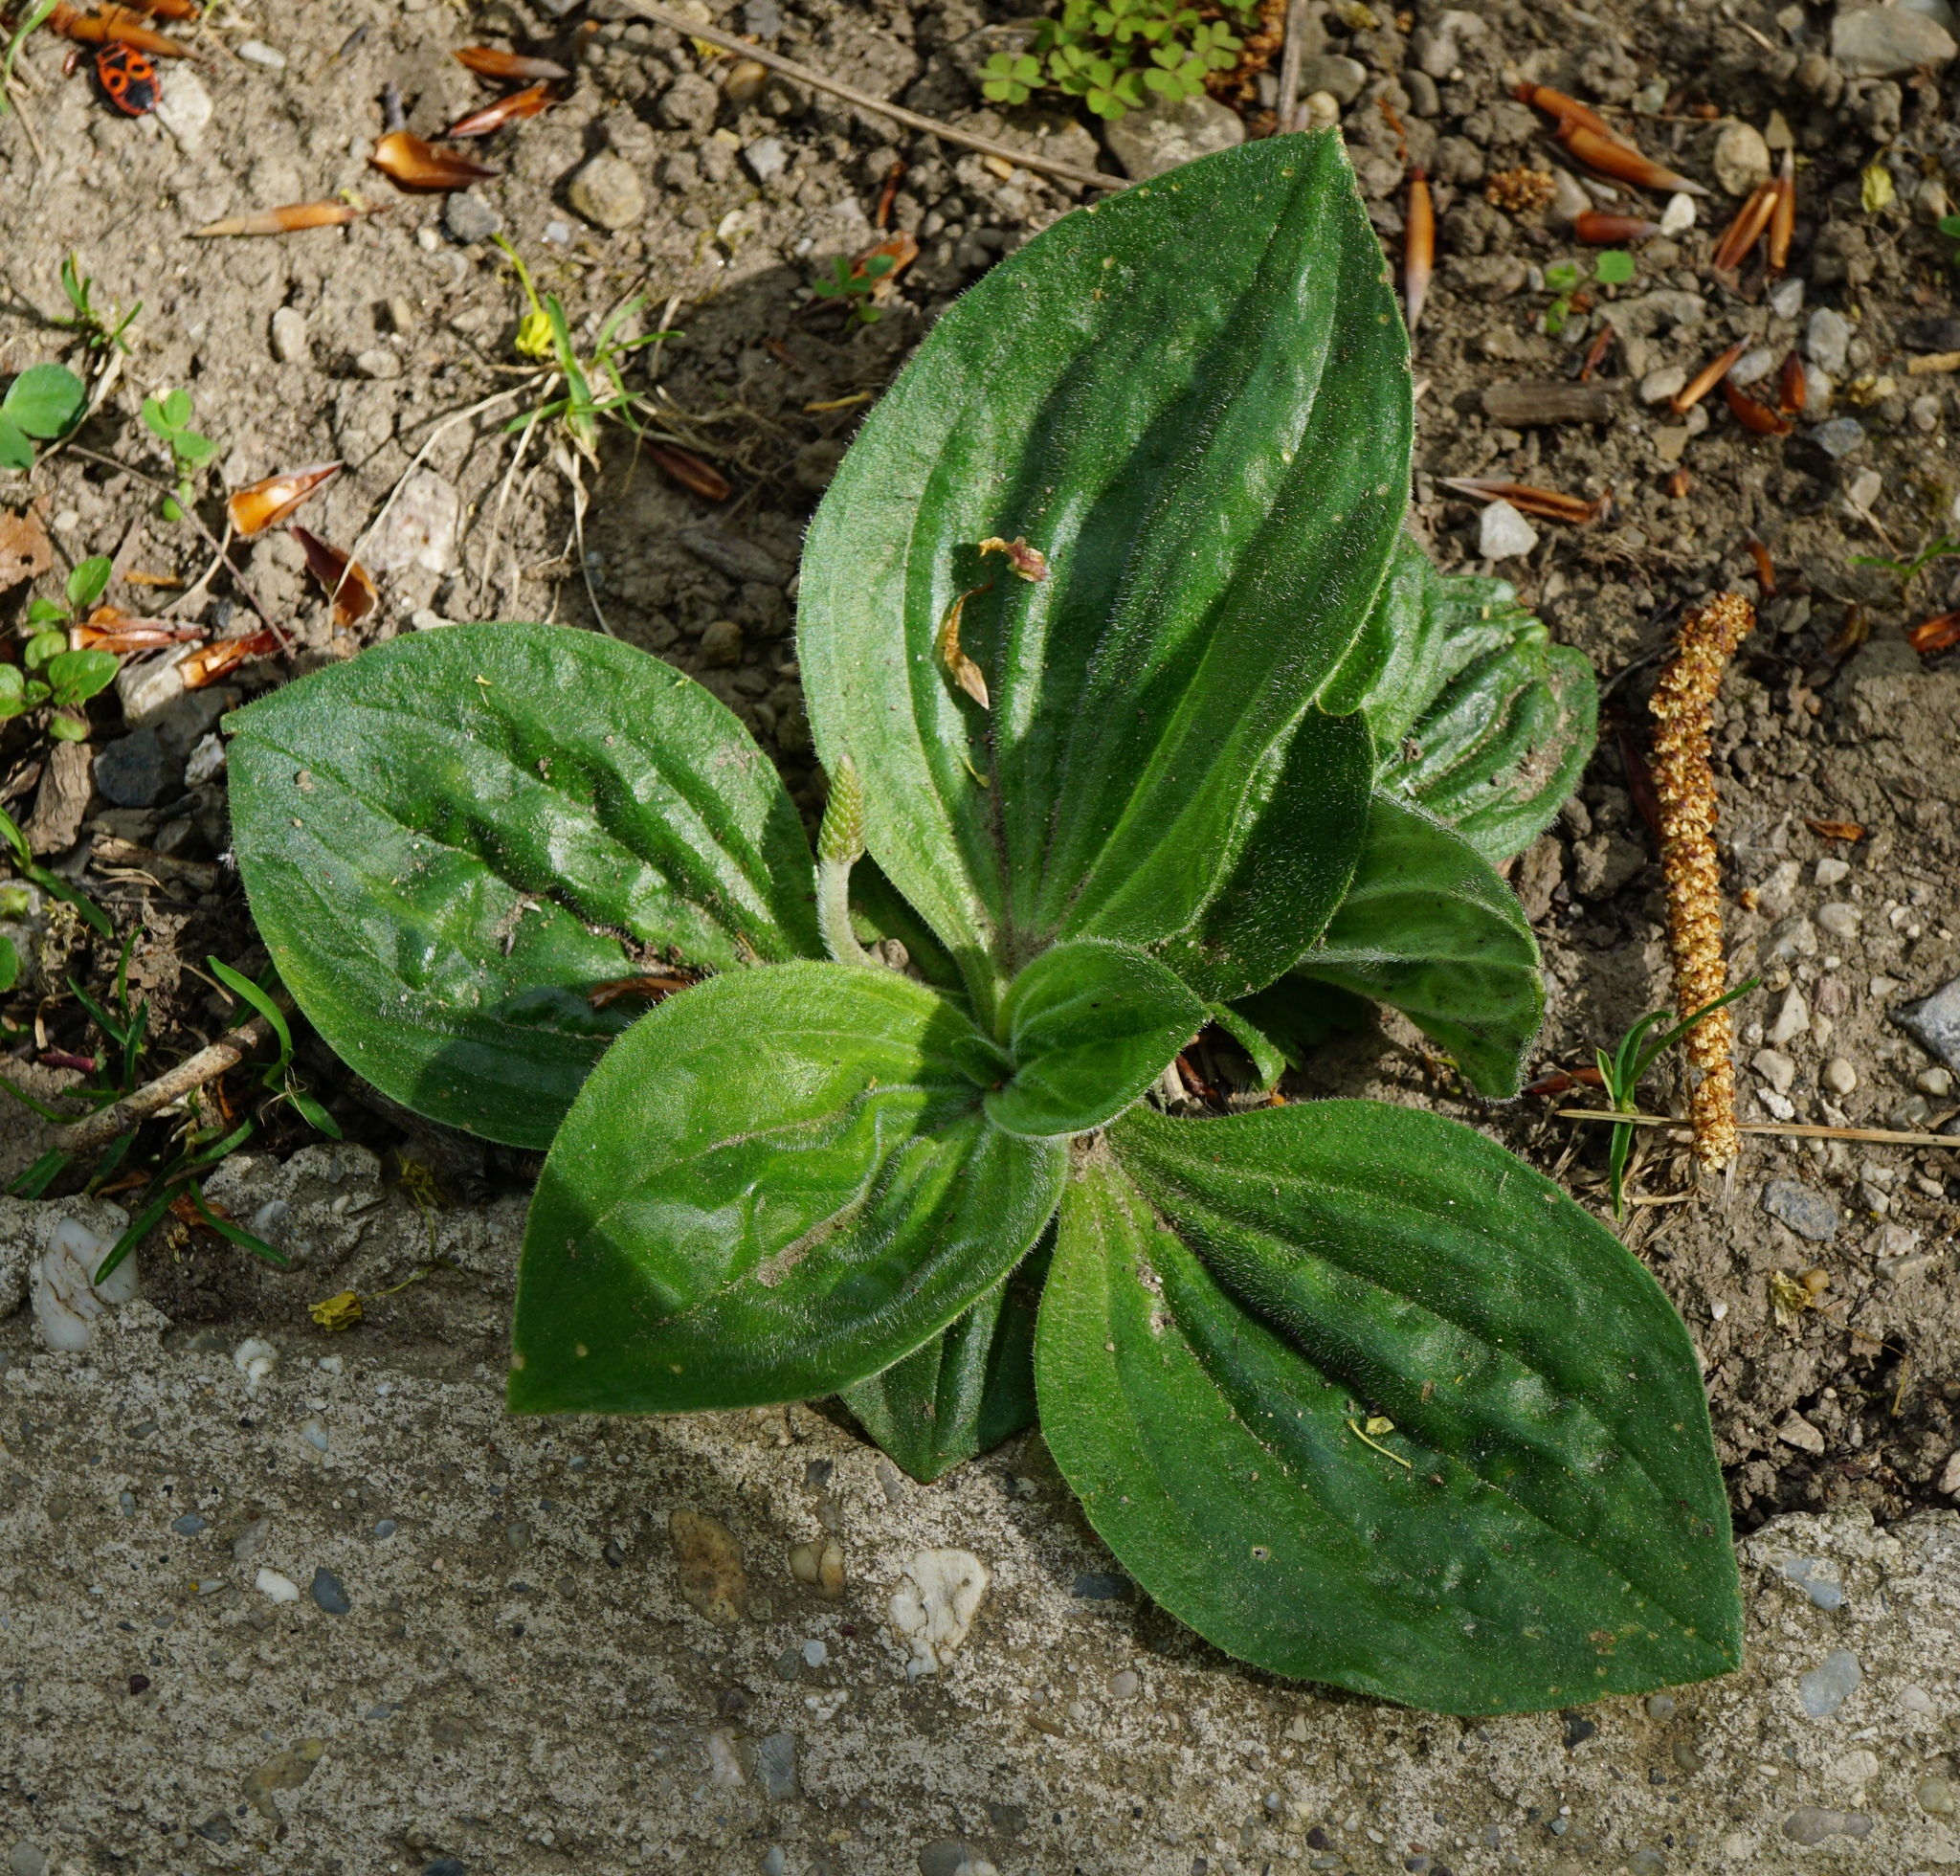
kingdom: Plantae
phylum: Tracheophyta
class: Magnoliopsida
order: Lamiales
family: Plantaginaceae
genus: Plantago
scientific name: Plantago media
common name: Hoary plantain
